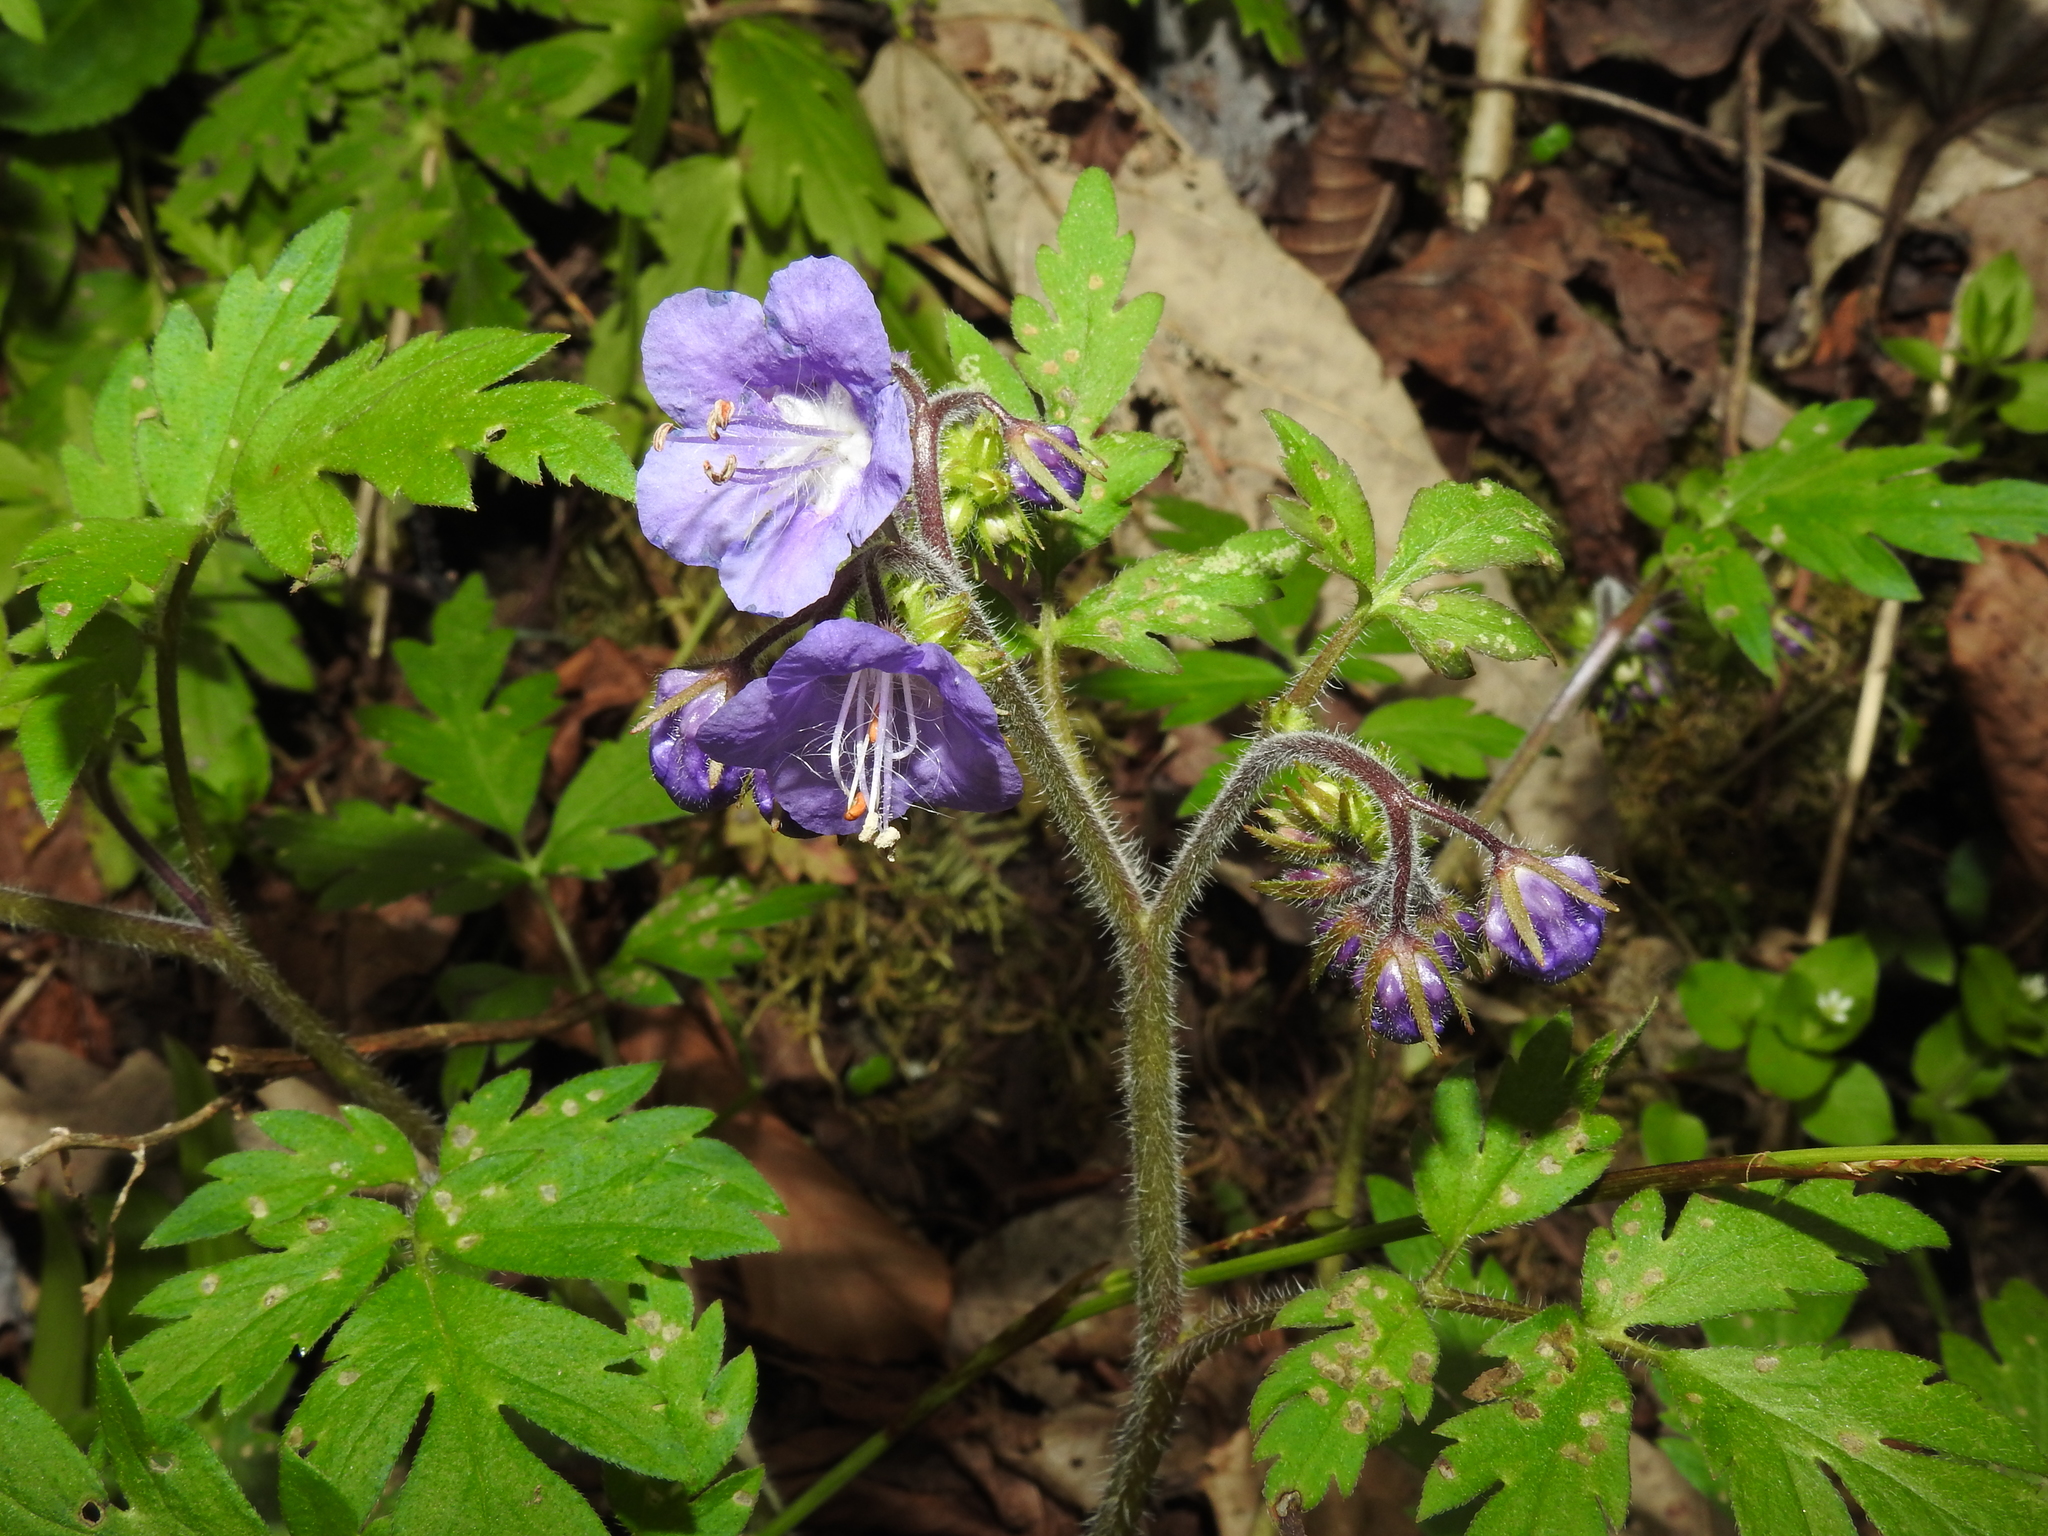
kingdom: Plantae
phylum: Tracheophyta
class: Magnoliopsida
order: Boraginales
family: Hydrophyllaceae
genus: Phacelia
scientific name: Phacelia bipinnatifida
